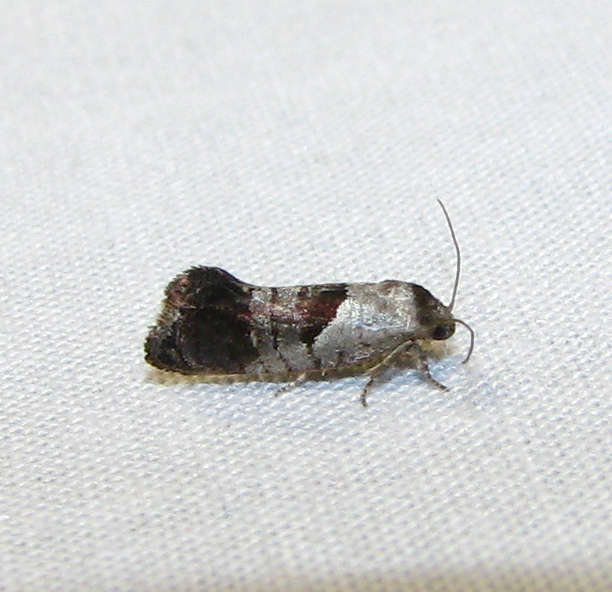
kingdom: Animalia
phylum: Arthropoda
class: Insecta
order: Lepidoptera
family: Depressariidae
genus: Eupselia
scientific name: Eupselia holoxantha
